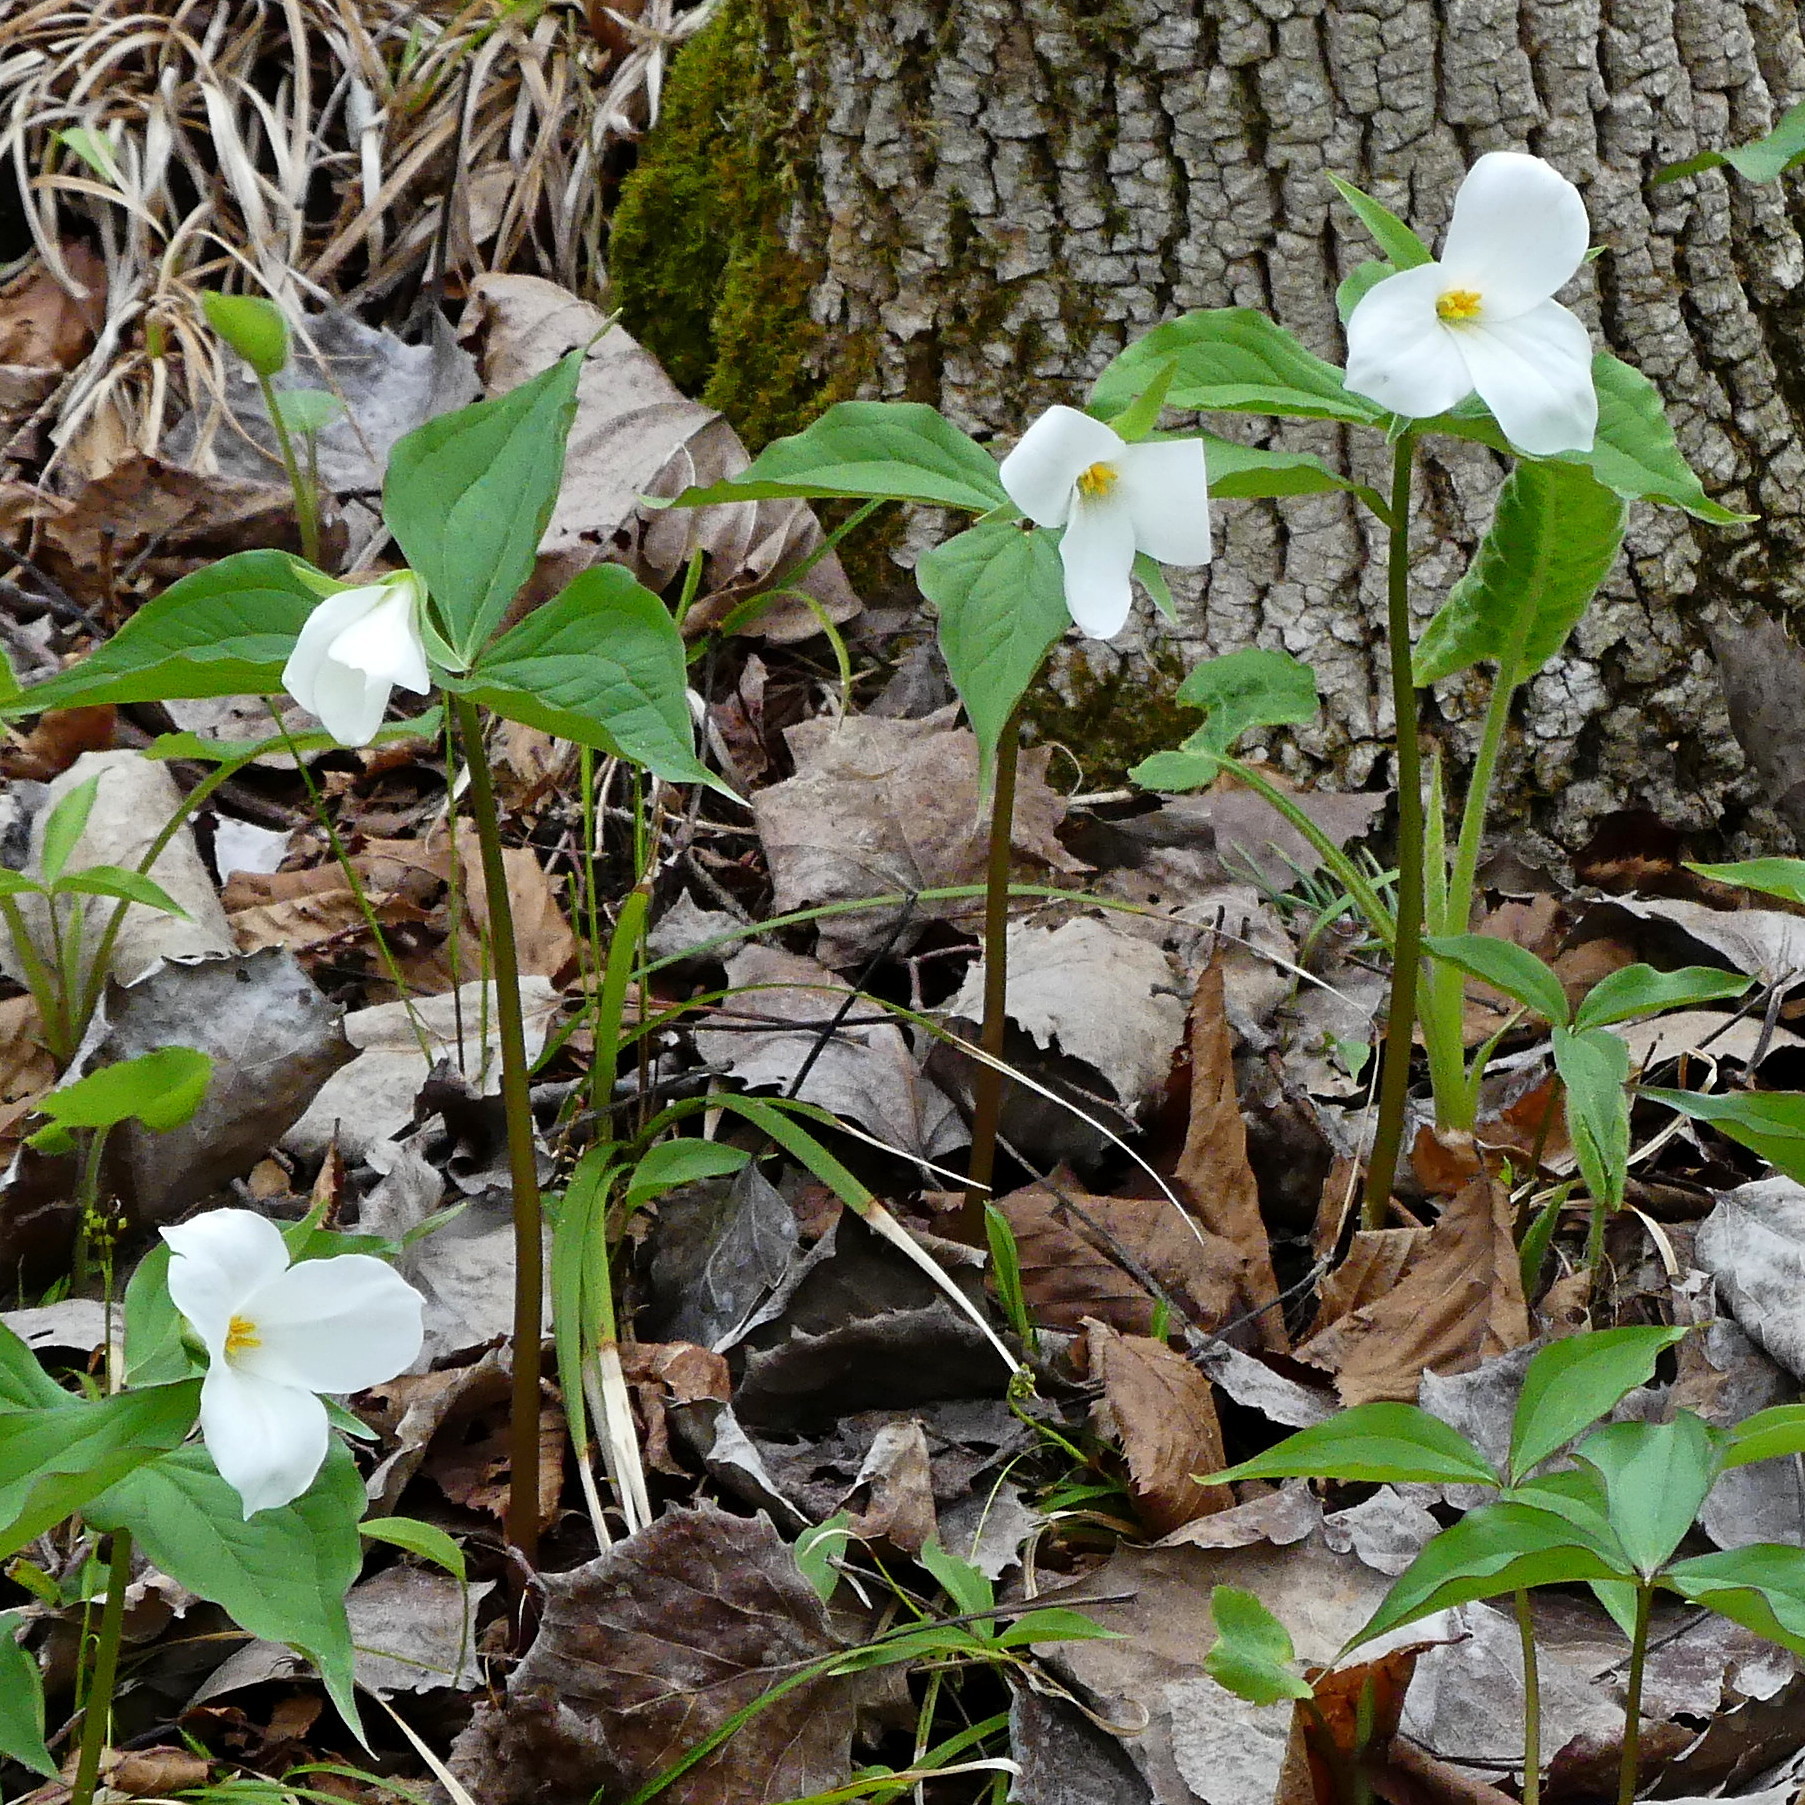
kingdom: Plantae
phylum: Tracheophyta
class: Liliopsida
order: Liliales
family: Melanthiaceae
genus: Trillium
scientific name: Trillium grandiflorum
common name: Great white trillium
